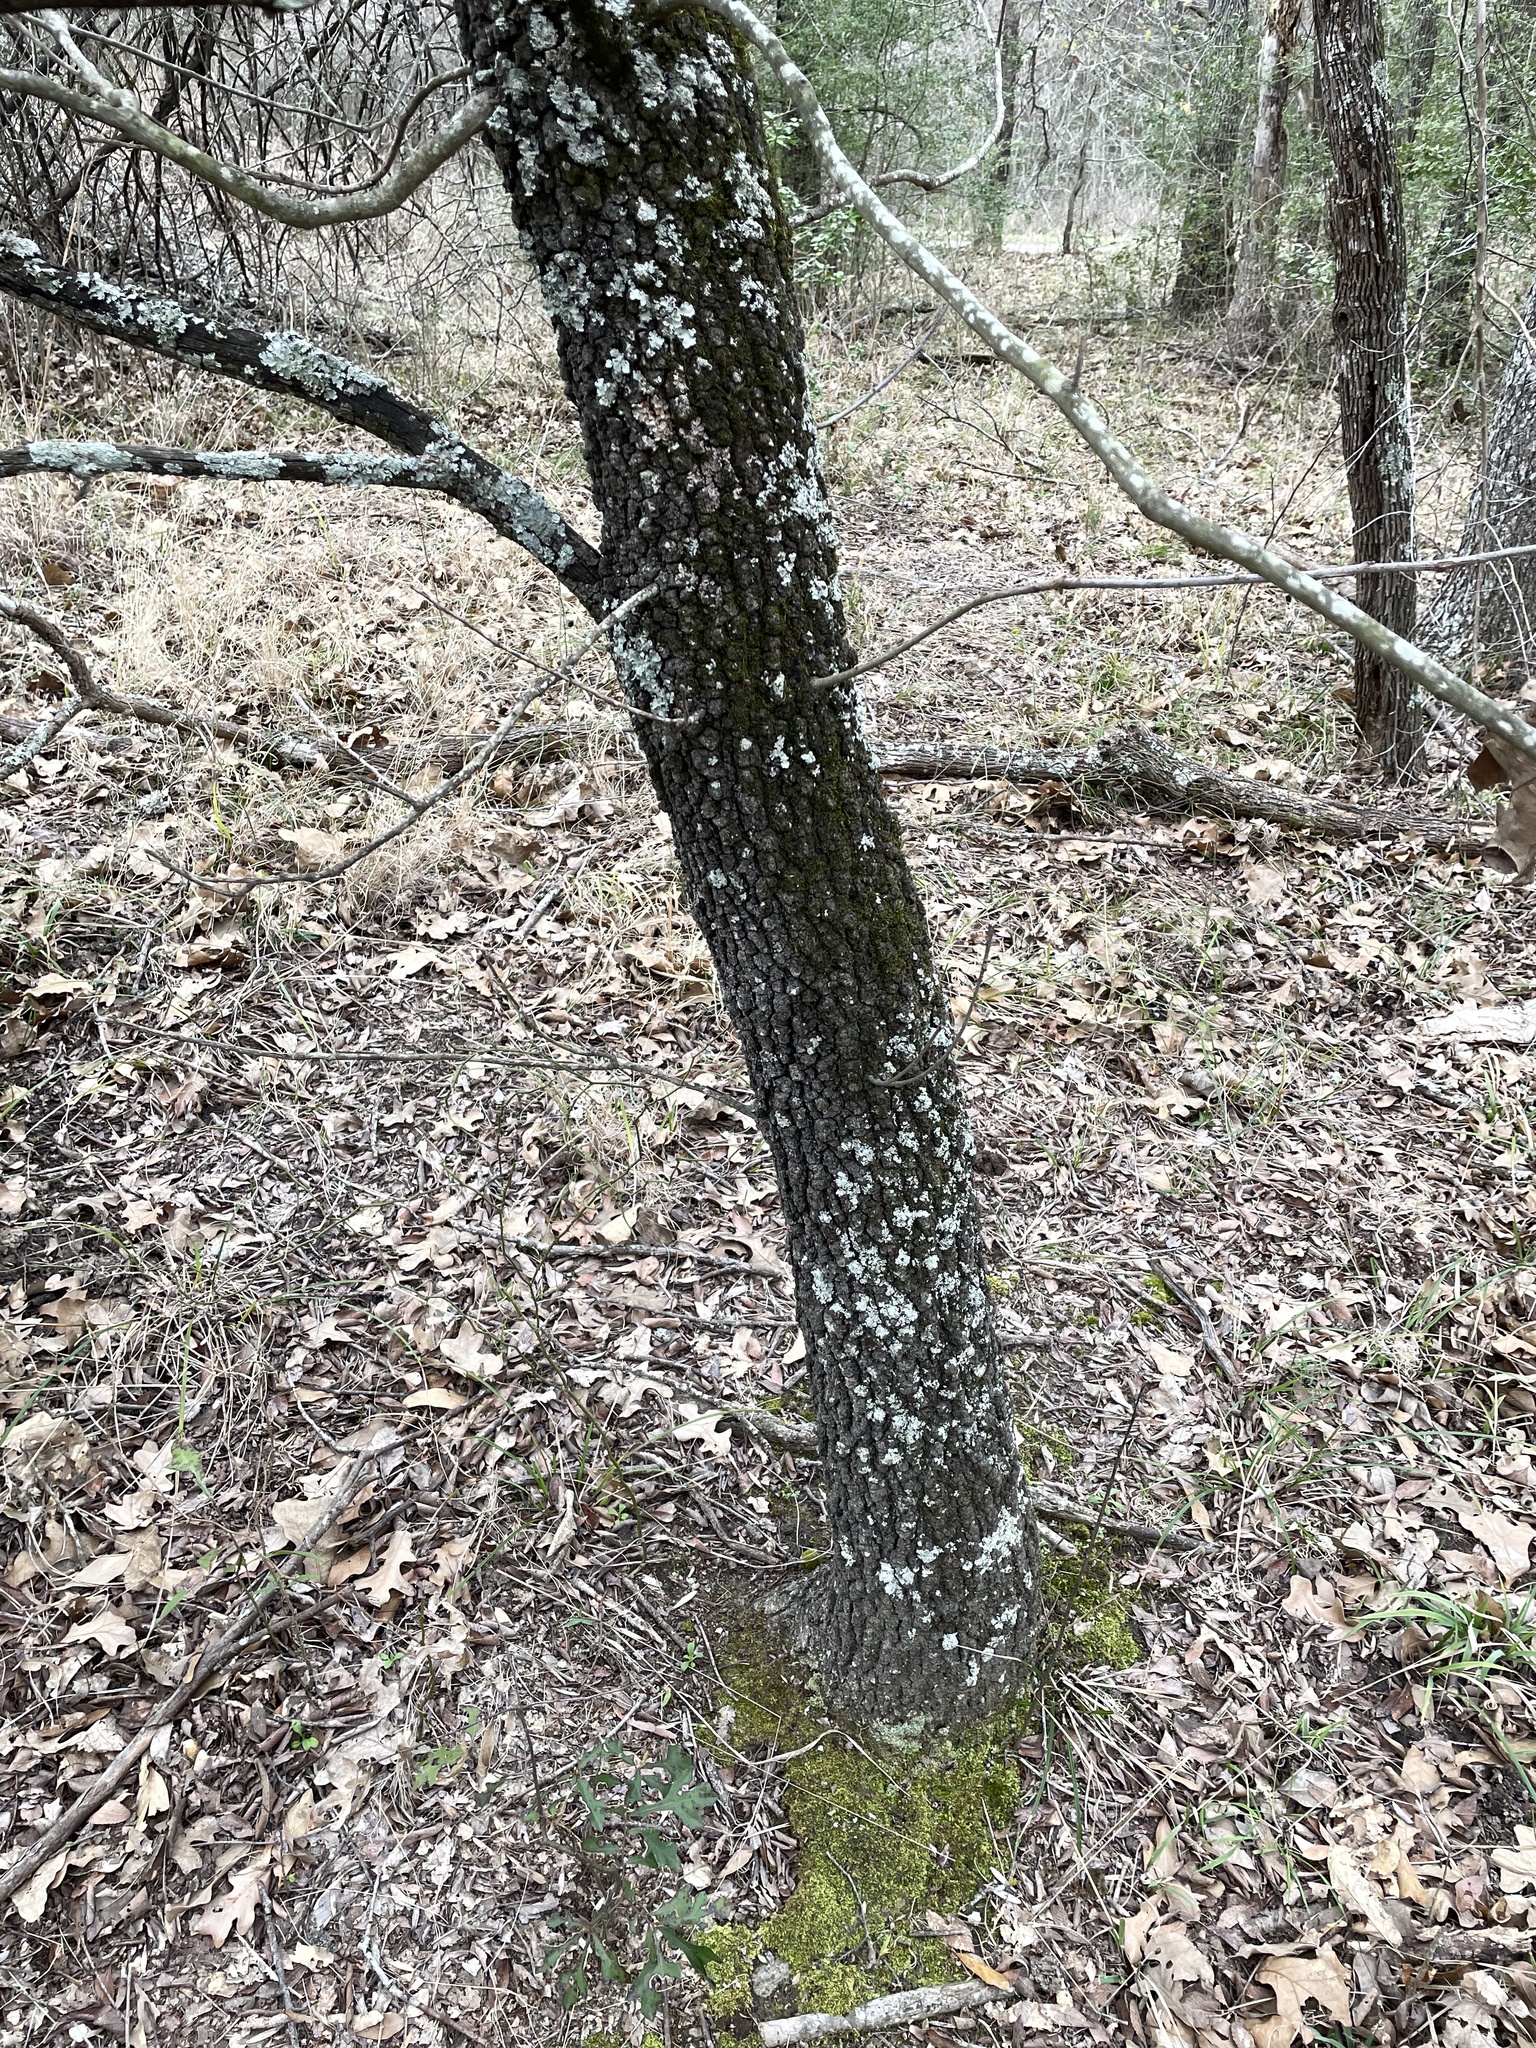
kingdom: Plantae
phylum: Tracheophyta
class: Magnoliopsida
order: Fagales
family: Fagaceae
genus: Quercus
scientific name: Quercus marilandica
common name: Blackjack oak
